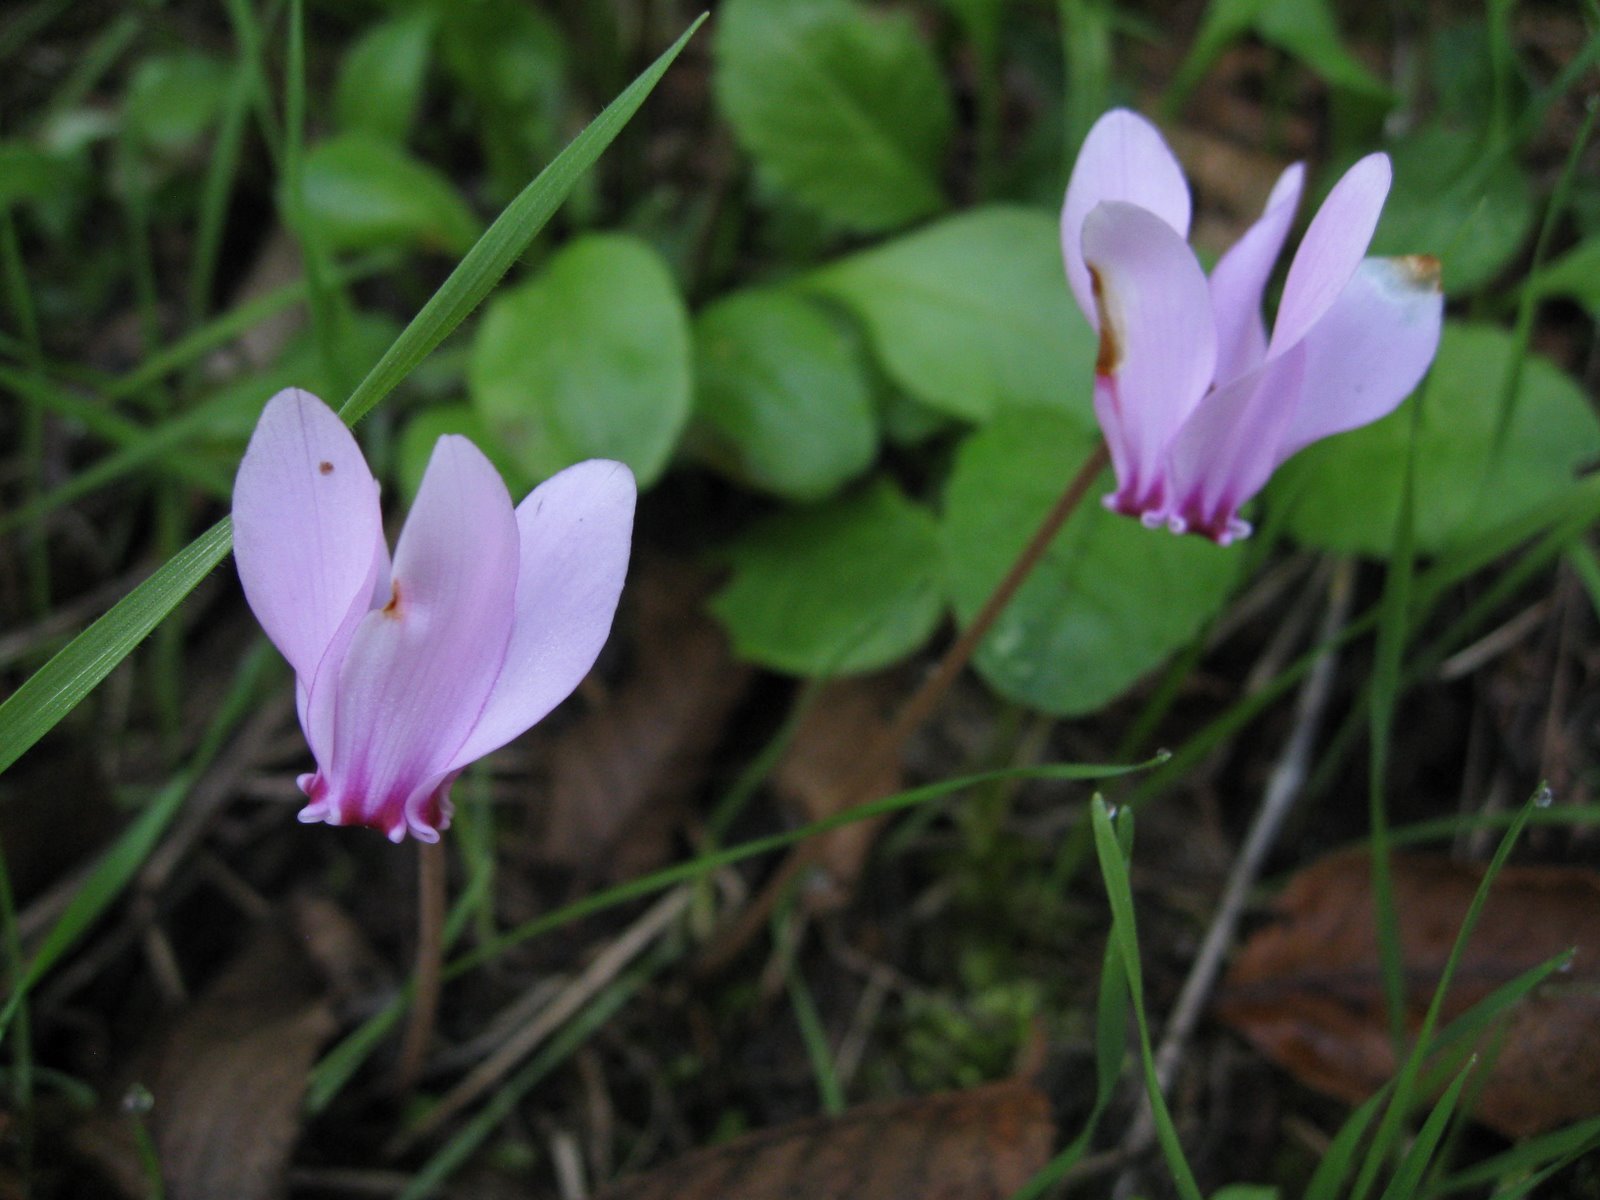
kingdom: Plantae
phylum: Tracheophyta
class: Magnoliopsida
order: Ericales
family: Primulaceae
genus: Cyclamen
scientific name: Cyclamen hederifolium
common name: Sowbread
